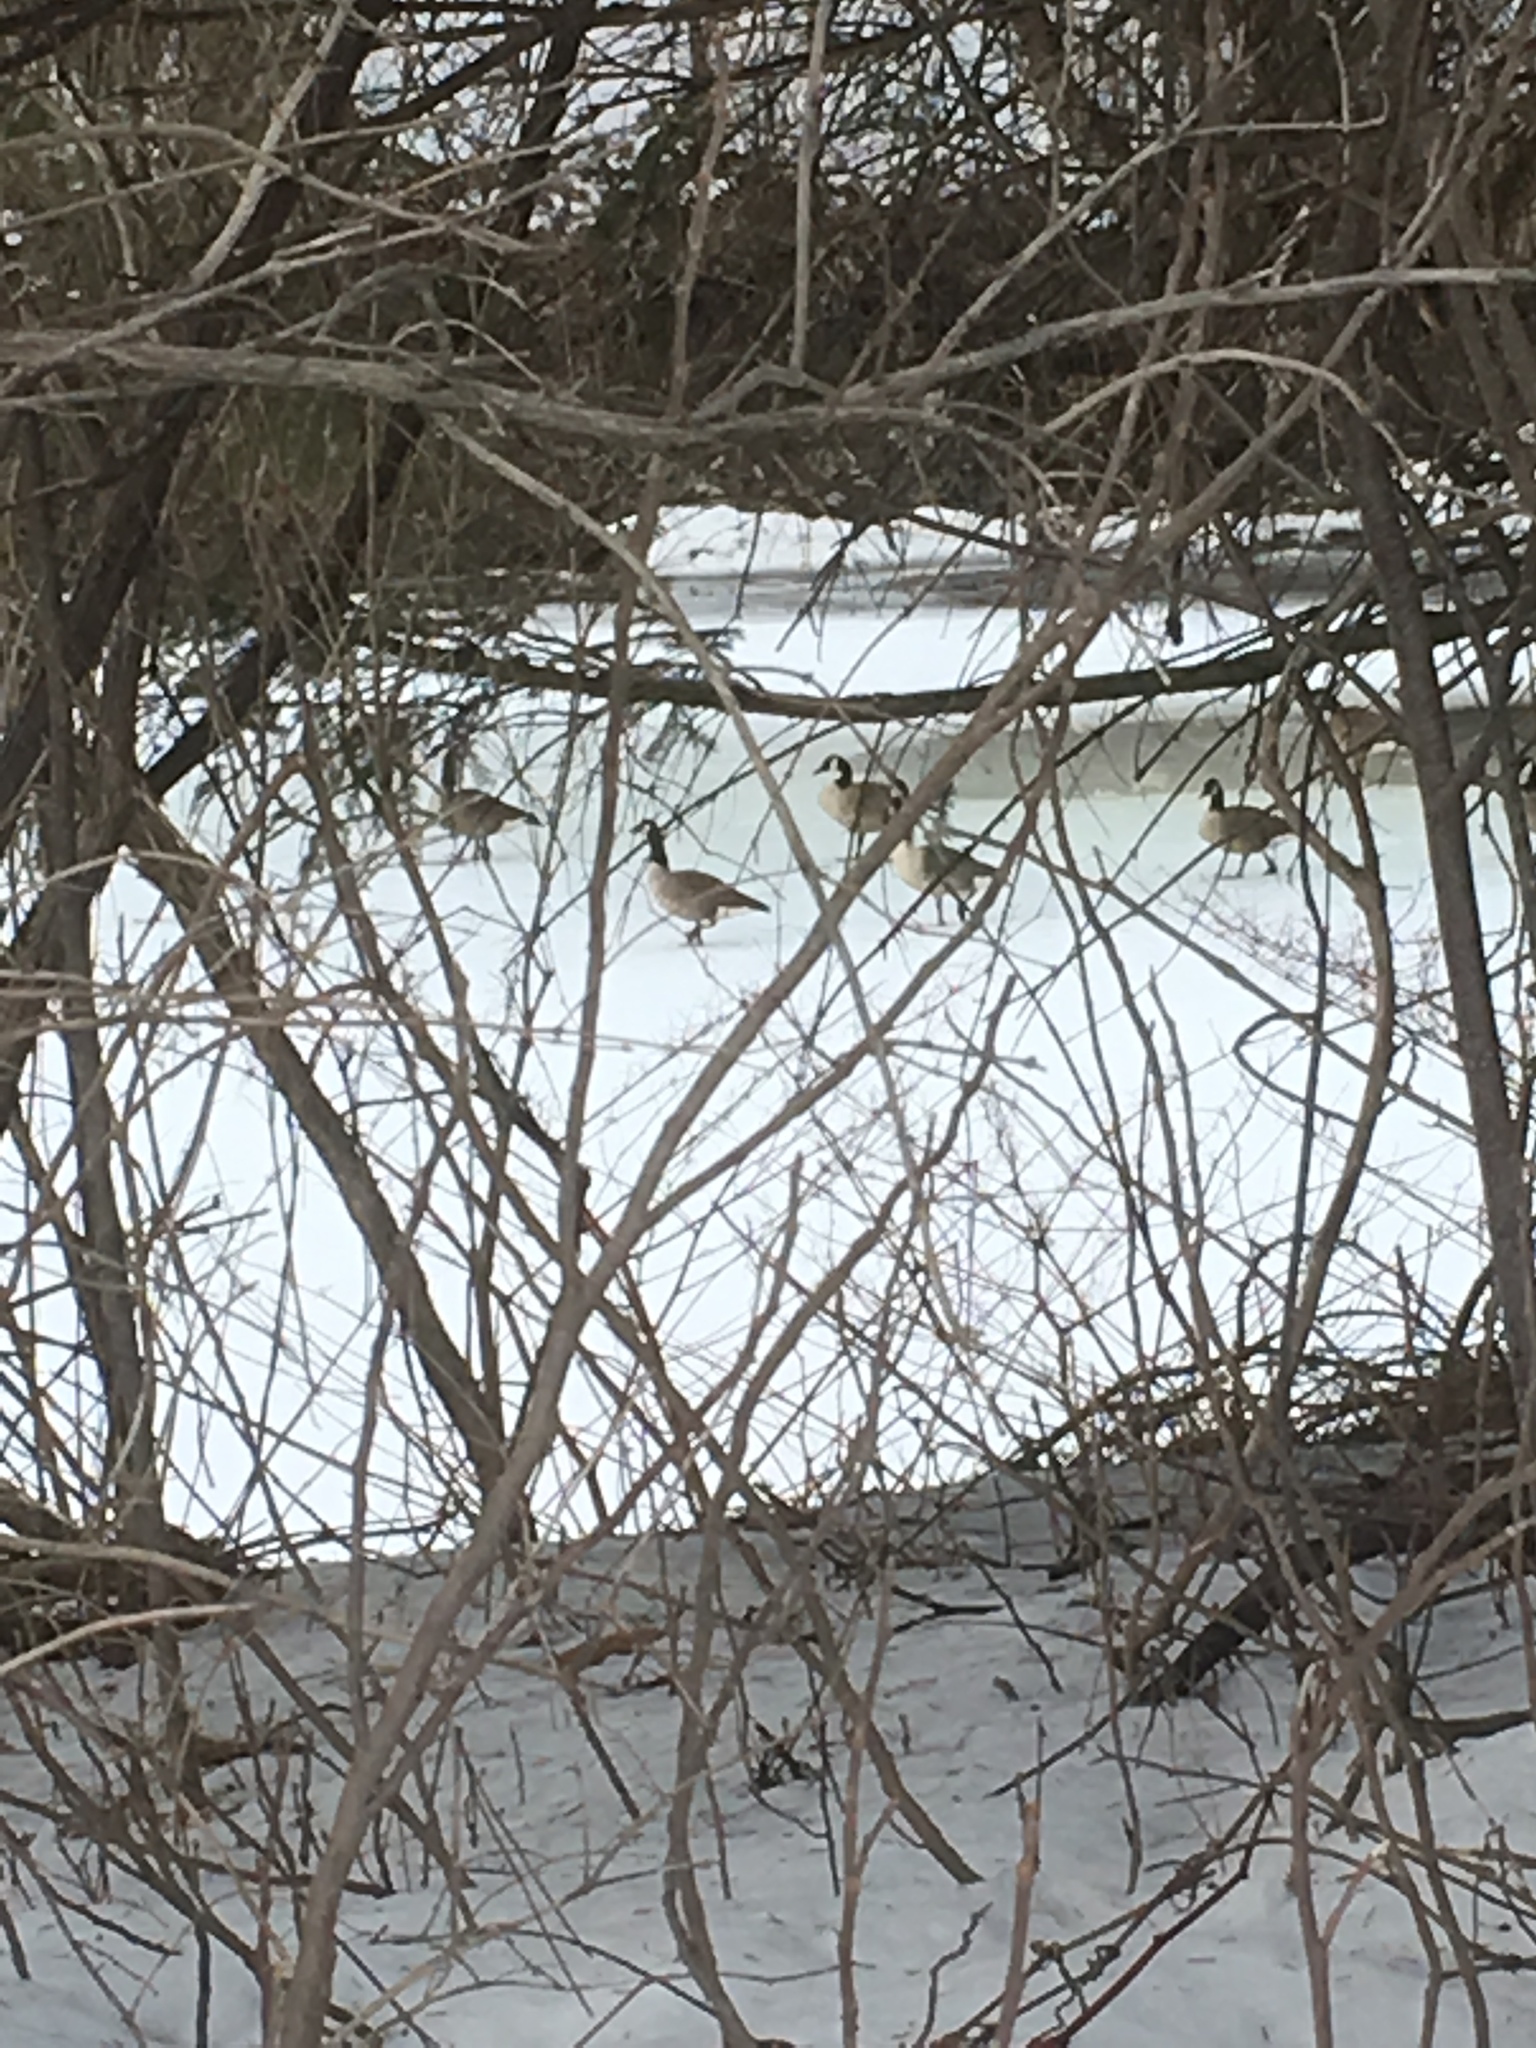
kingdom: Animalia
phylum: Chordata
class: Aves
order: Anseriformes
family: Anatidae
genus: Branta
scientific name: Branta canadensis
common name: Canada goose
